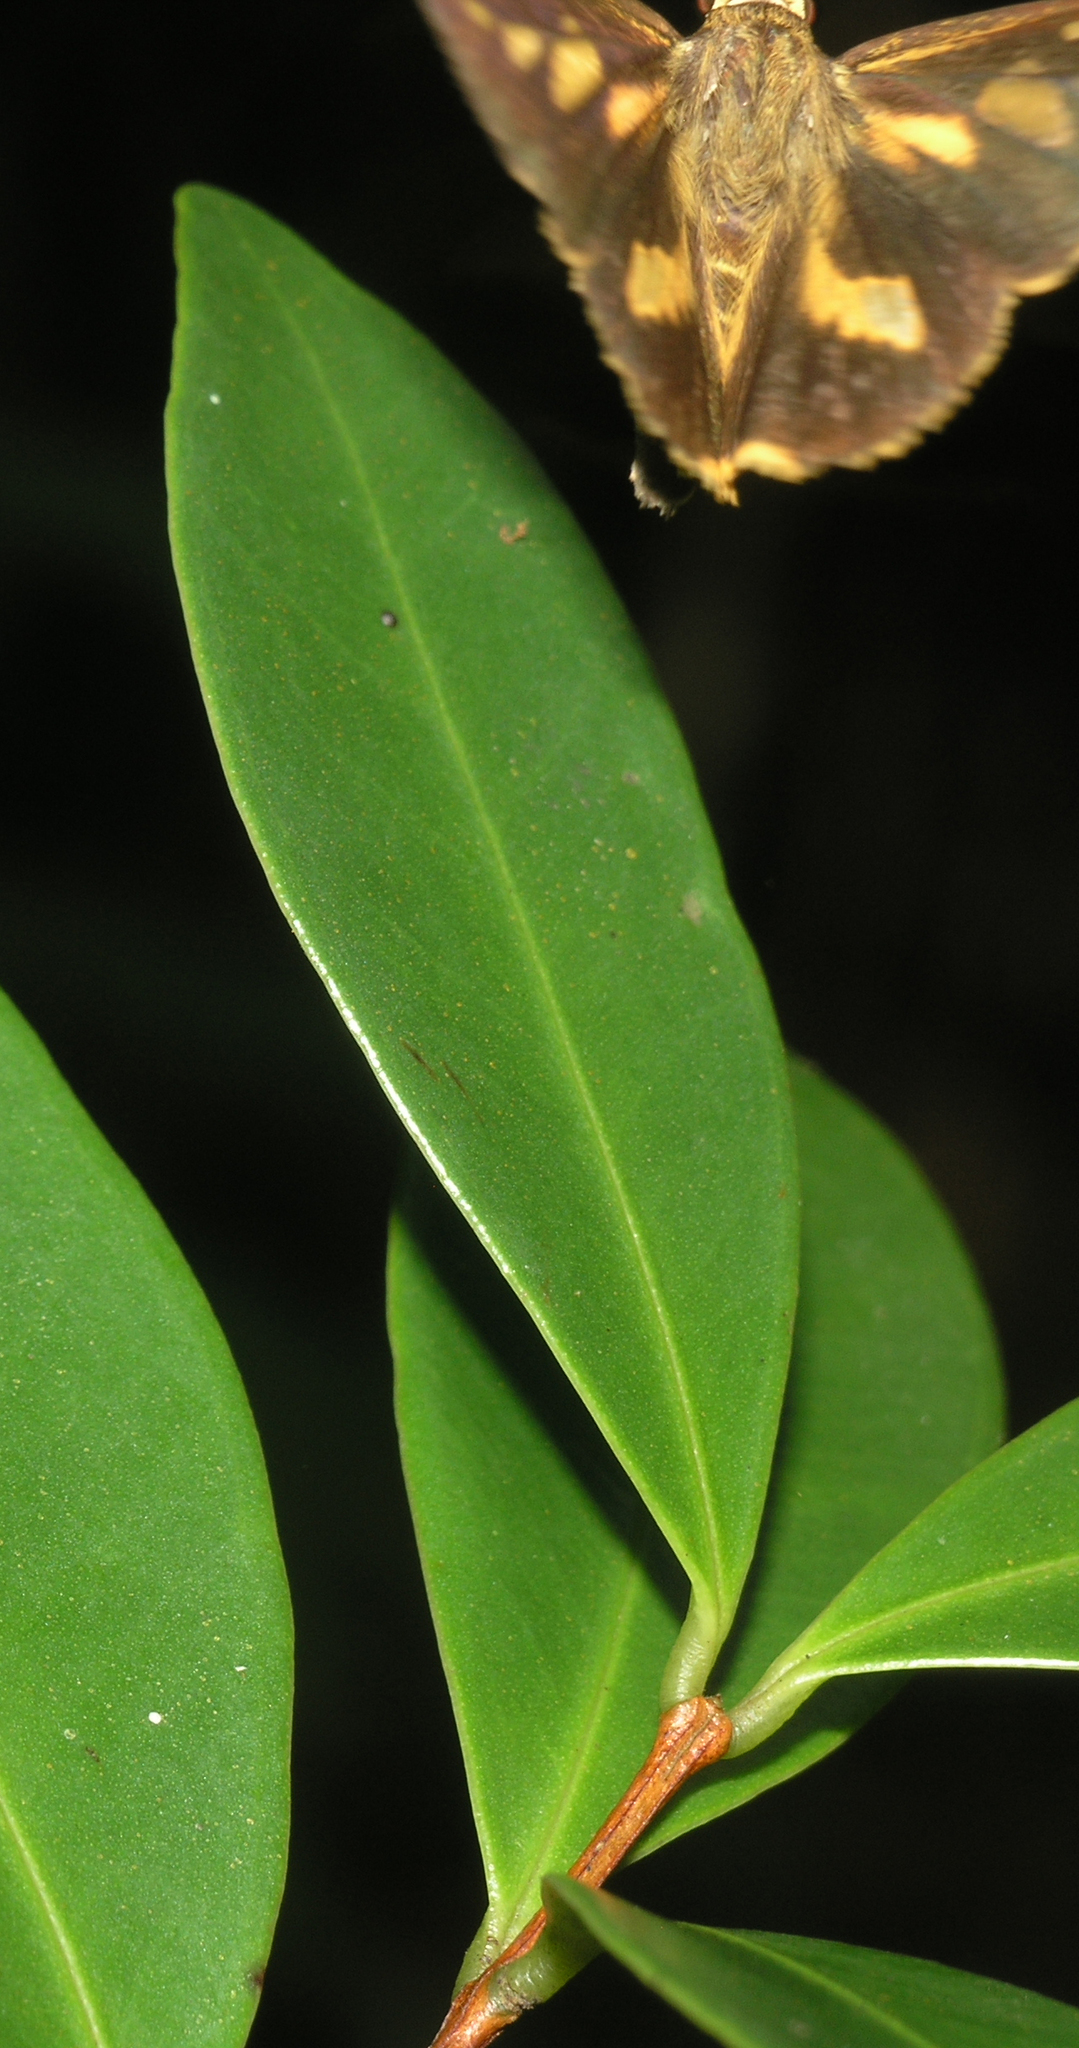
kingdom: Animalia
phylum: Arthropoda
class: Insecta
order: Lepidoptera
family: Hesperiidae
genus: Pyroneura
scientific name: Pyroneura margherita
